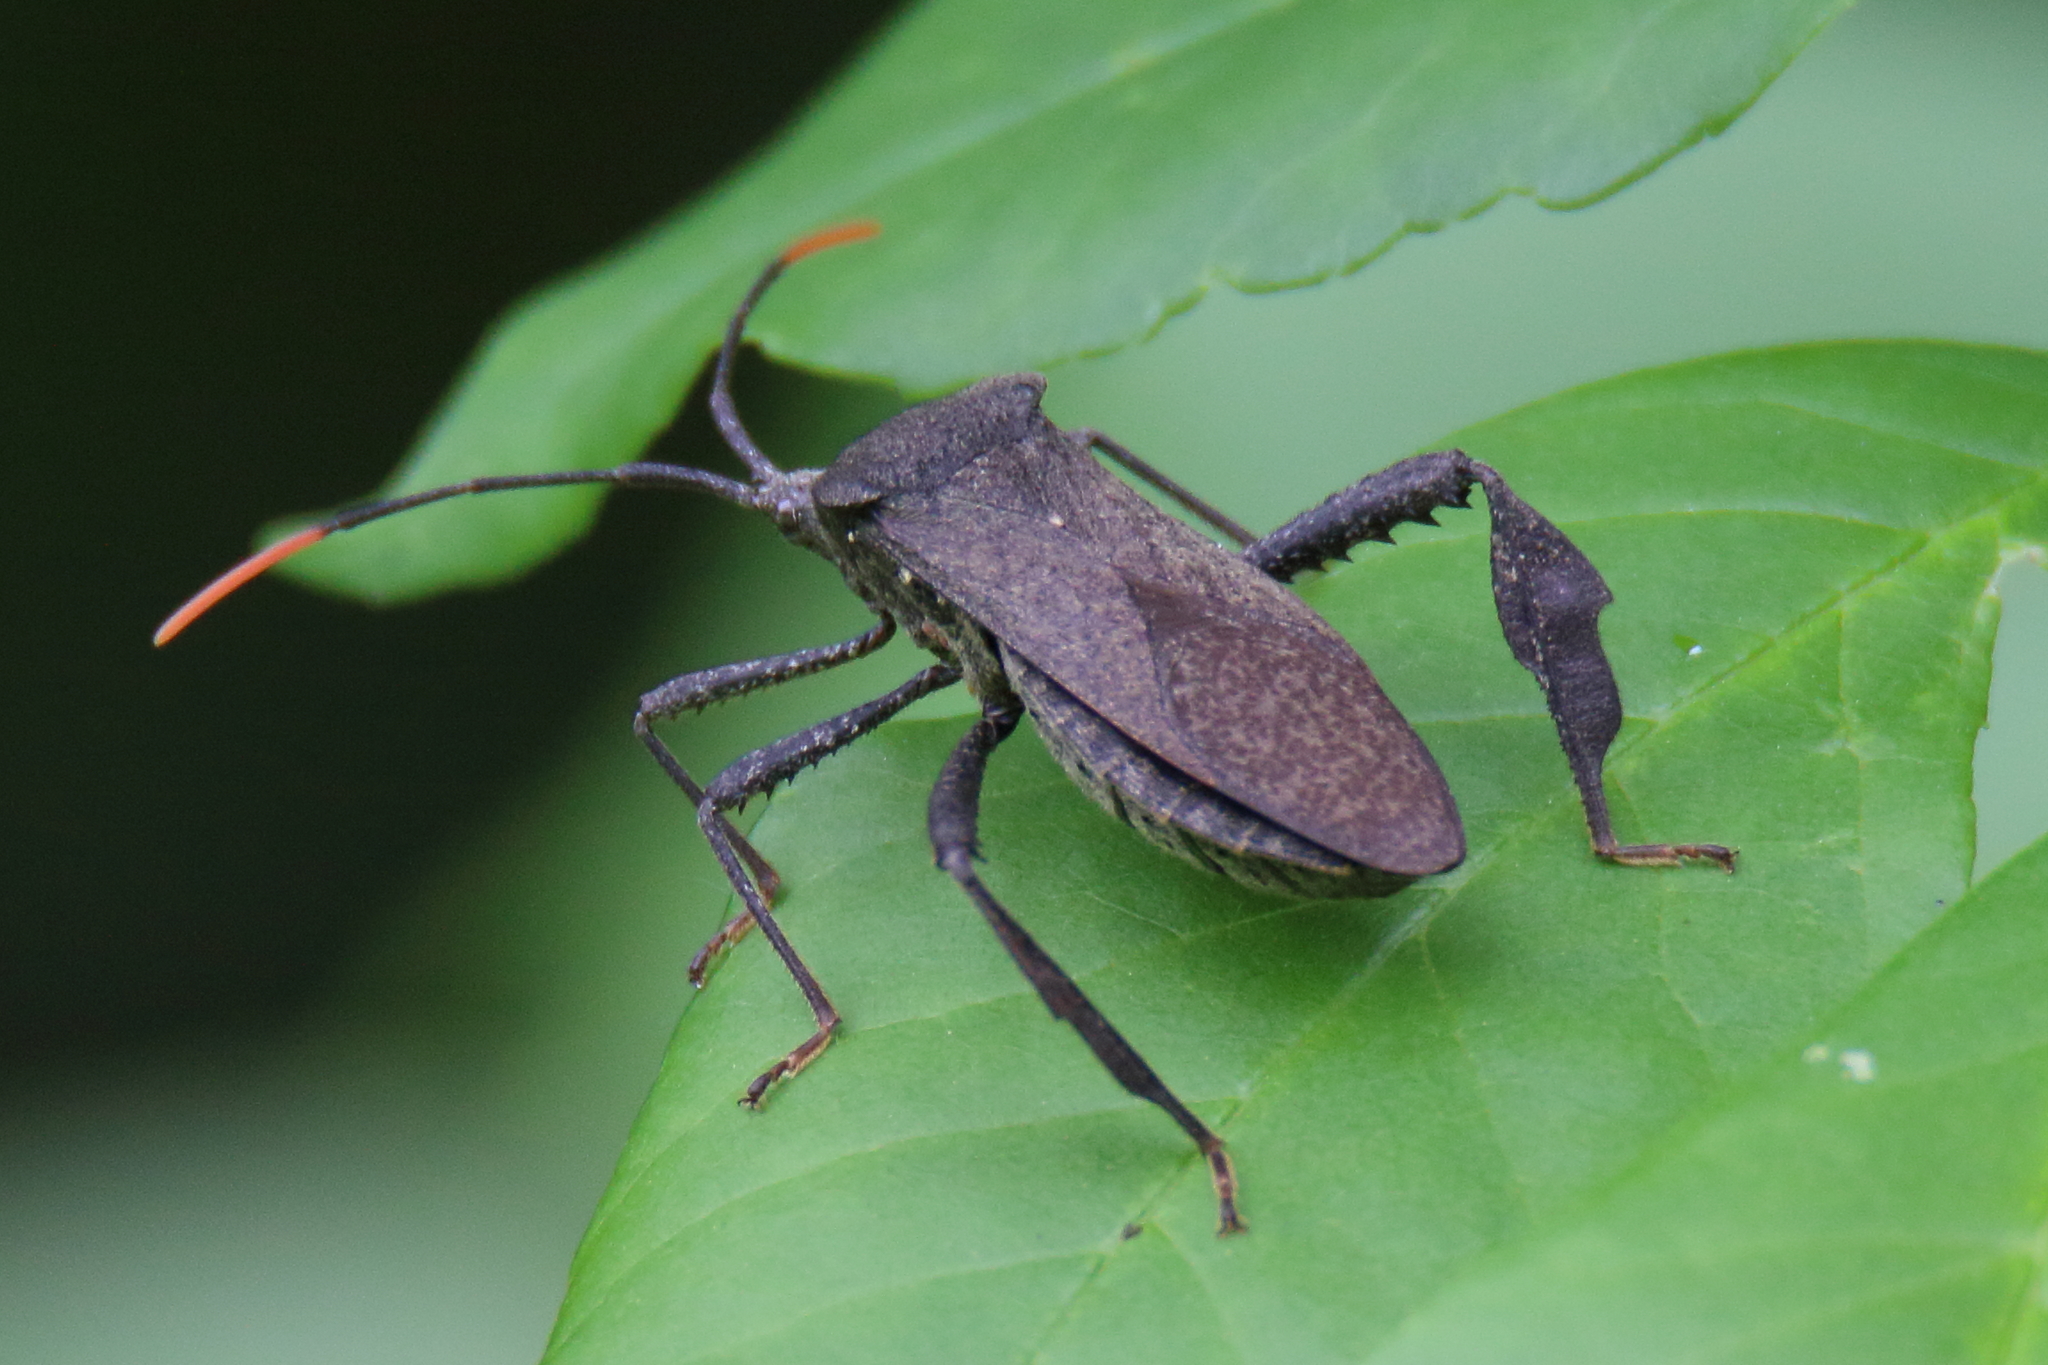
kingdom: Animalia
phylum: Arthropoda
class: Insecta
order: Hemiptera
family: Coreidae
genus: Acanthocephala
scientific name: Acanthocephala terminalis
